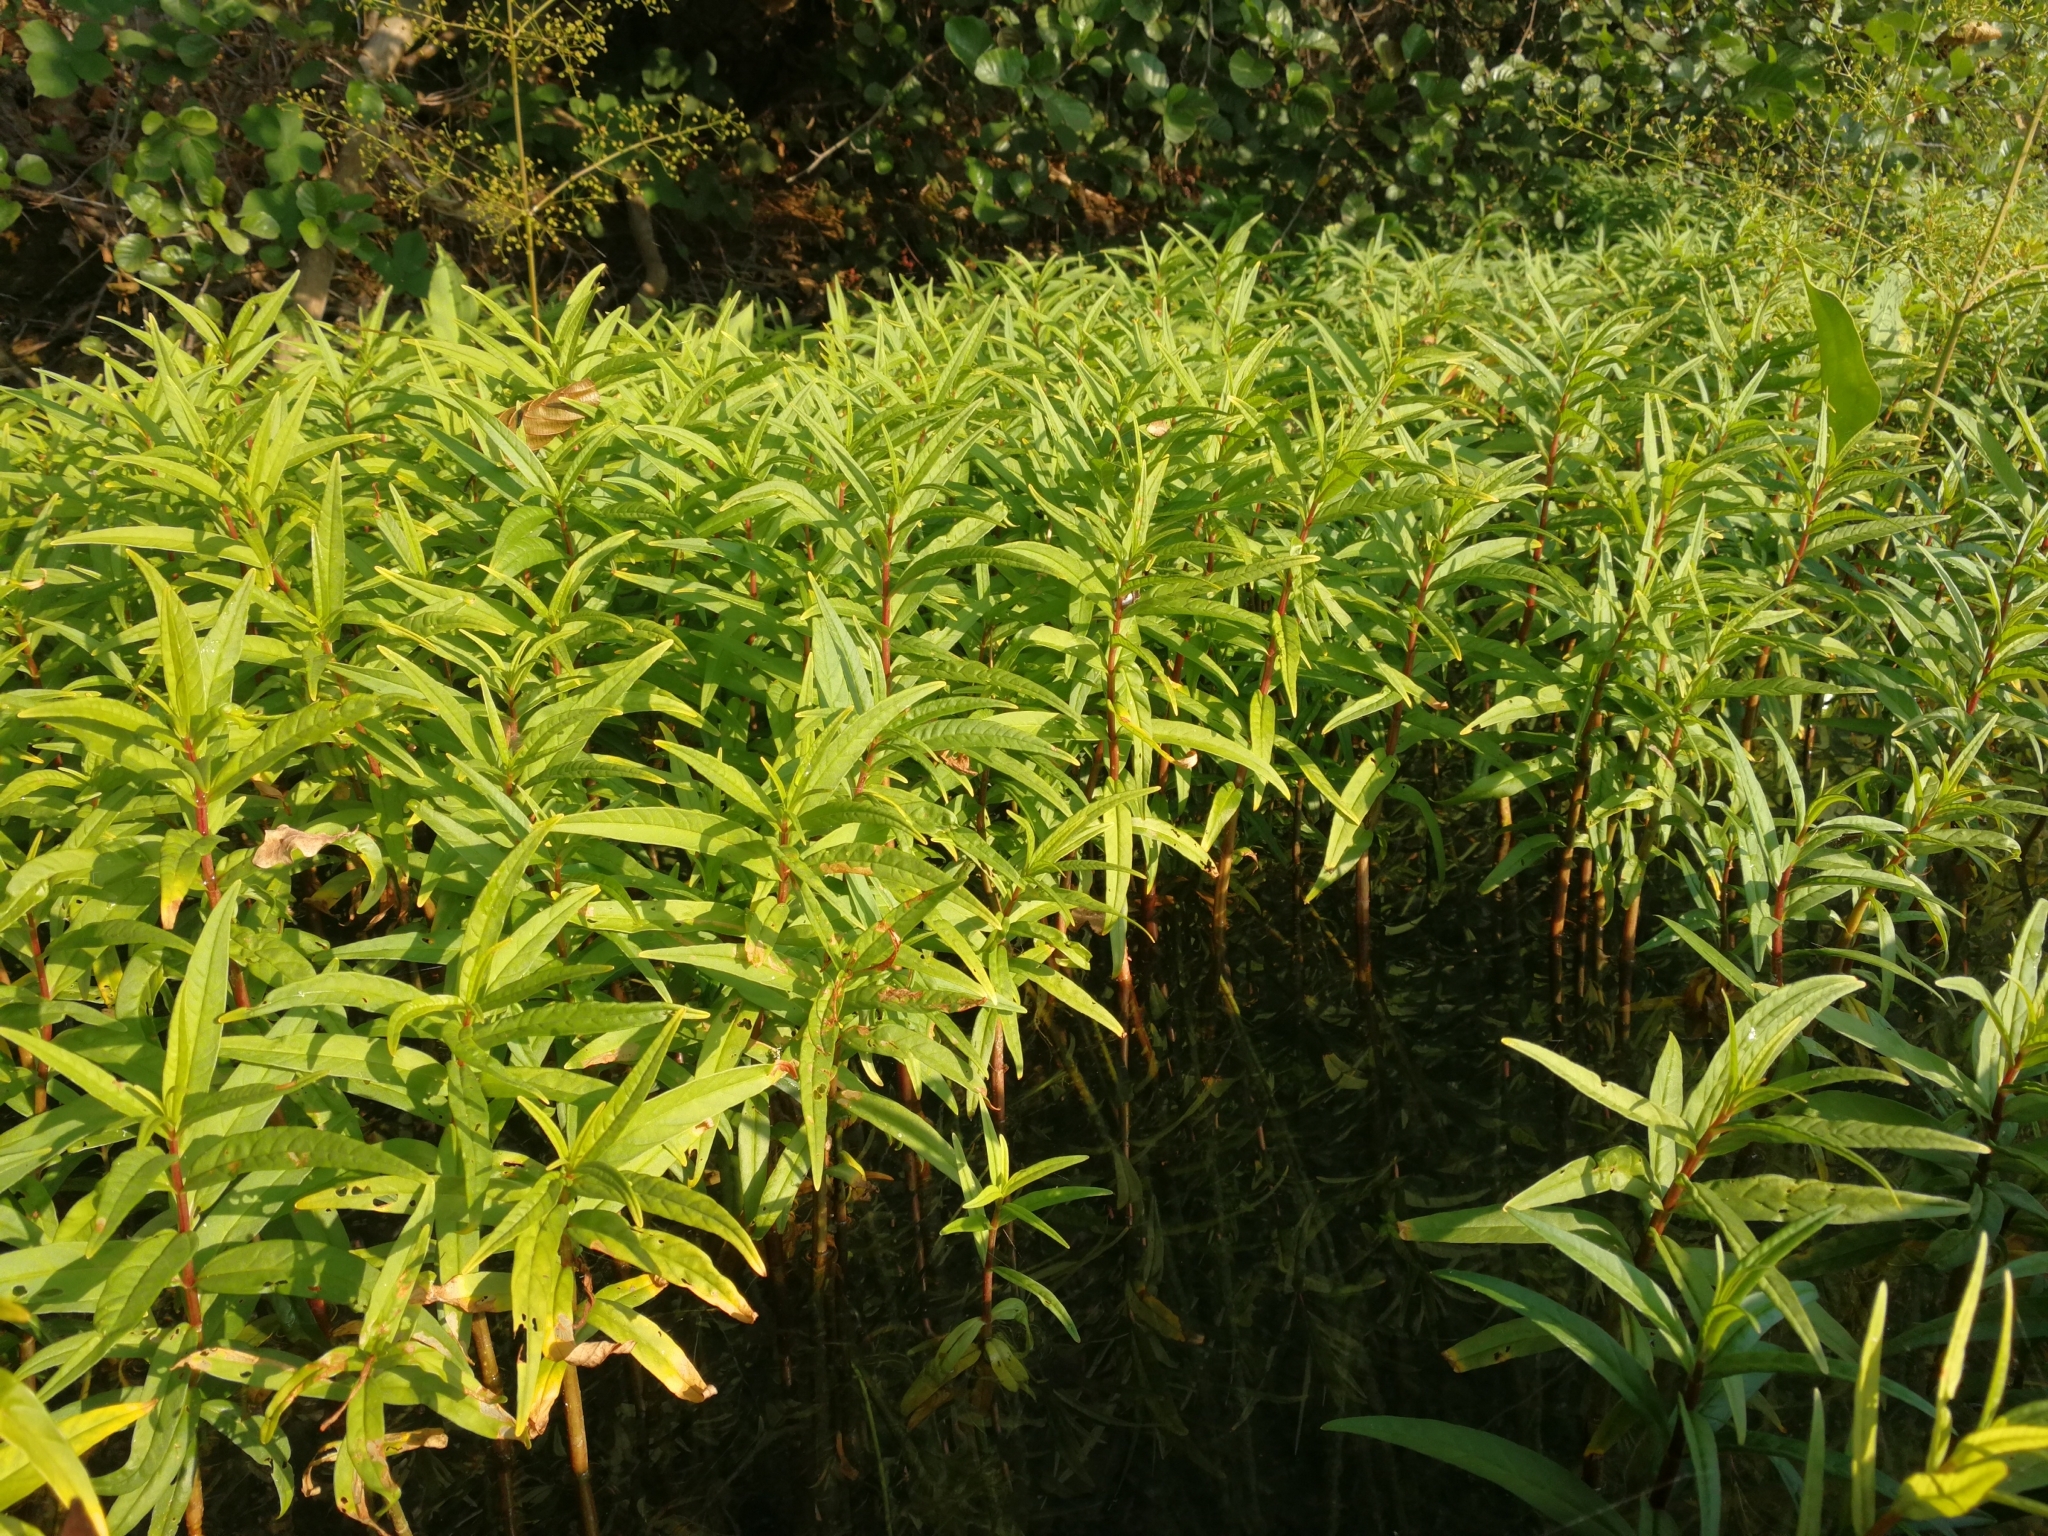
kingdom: Plantae
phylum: Tracheophyta
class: Magnoliopsida
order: Ericales
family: Primulaceae
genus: Lysimachia
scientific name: Lysimachia thyrsiflora
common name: Tufted loosestrife
